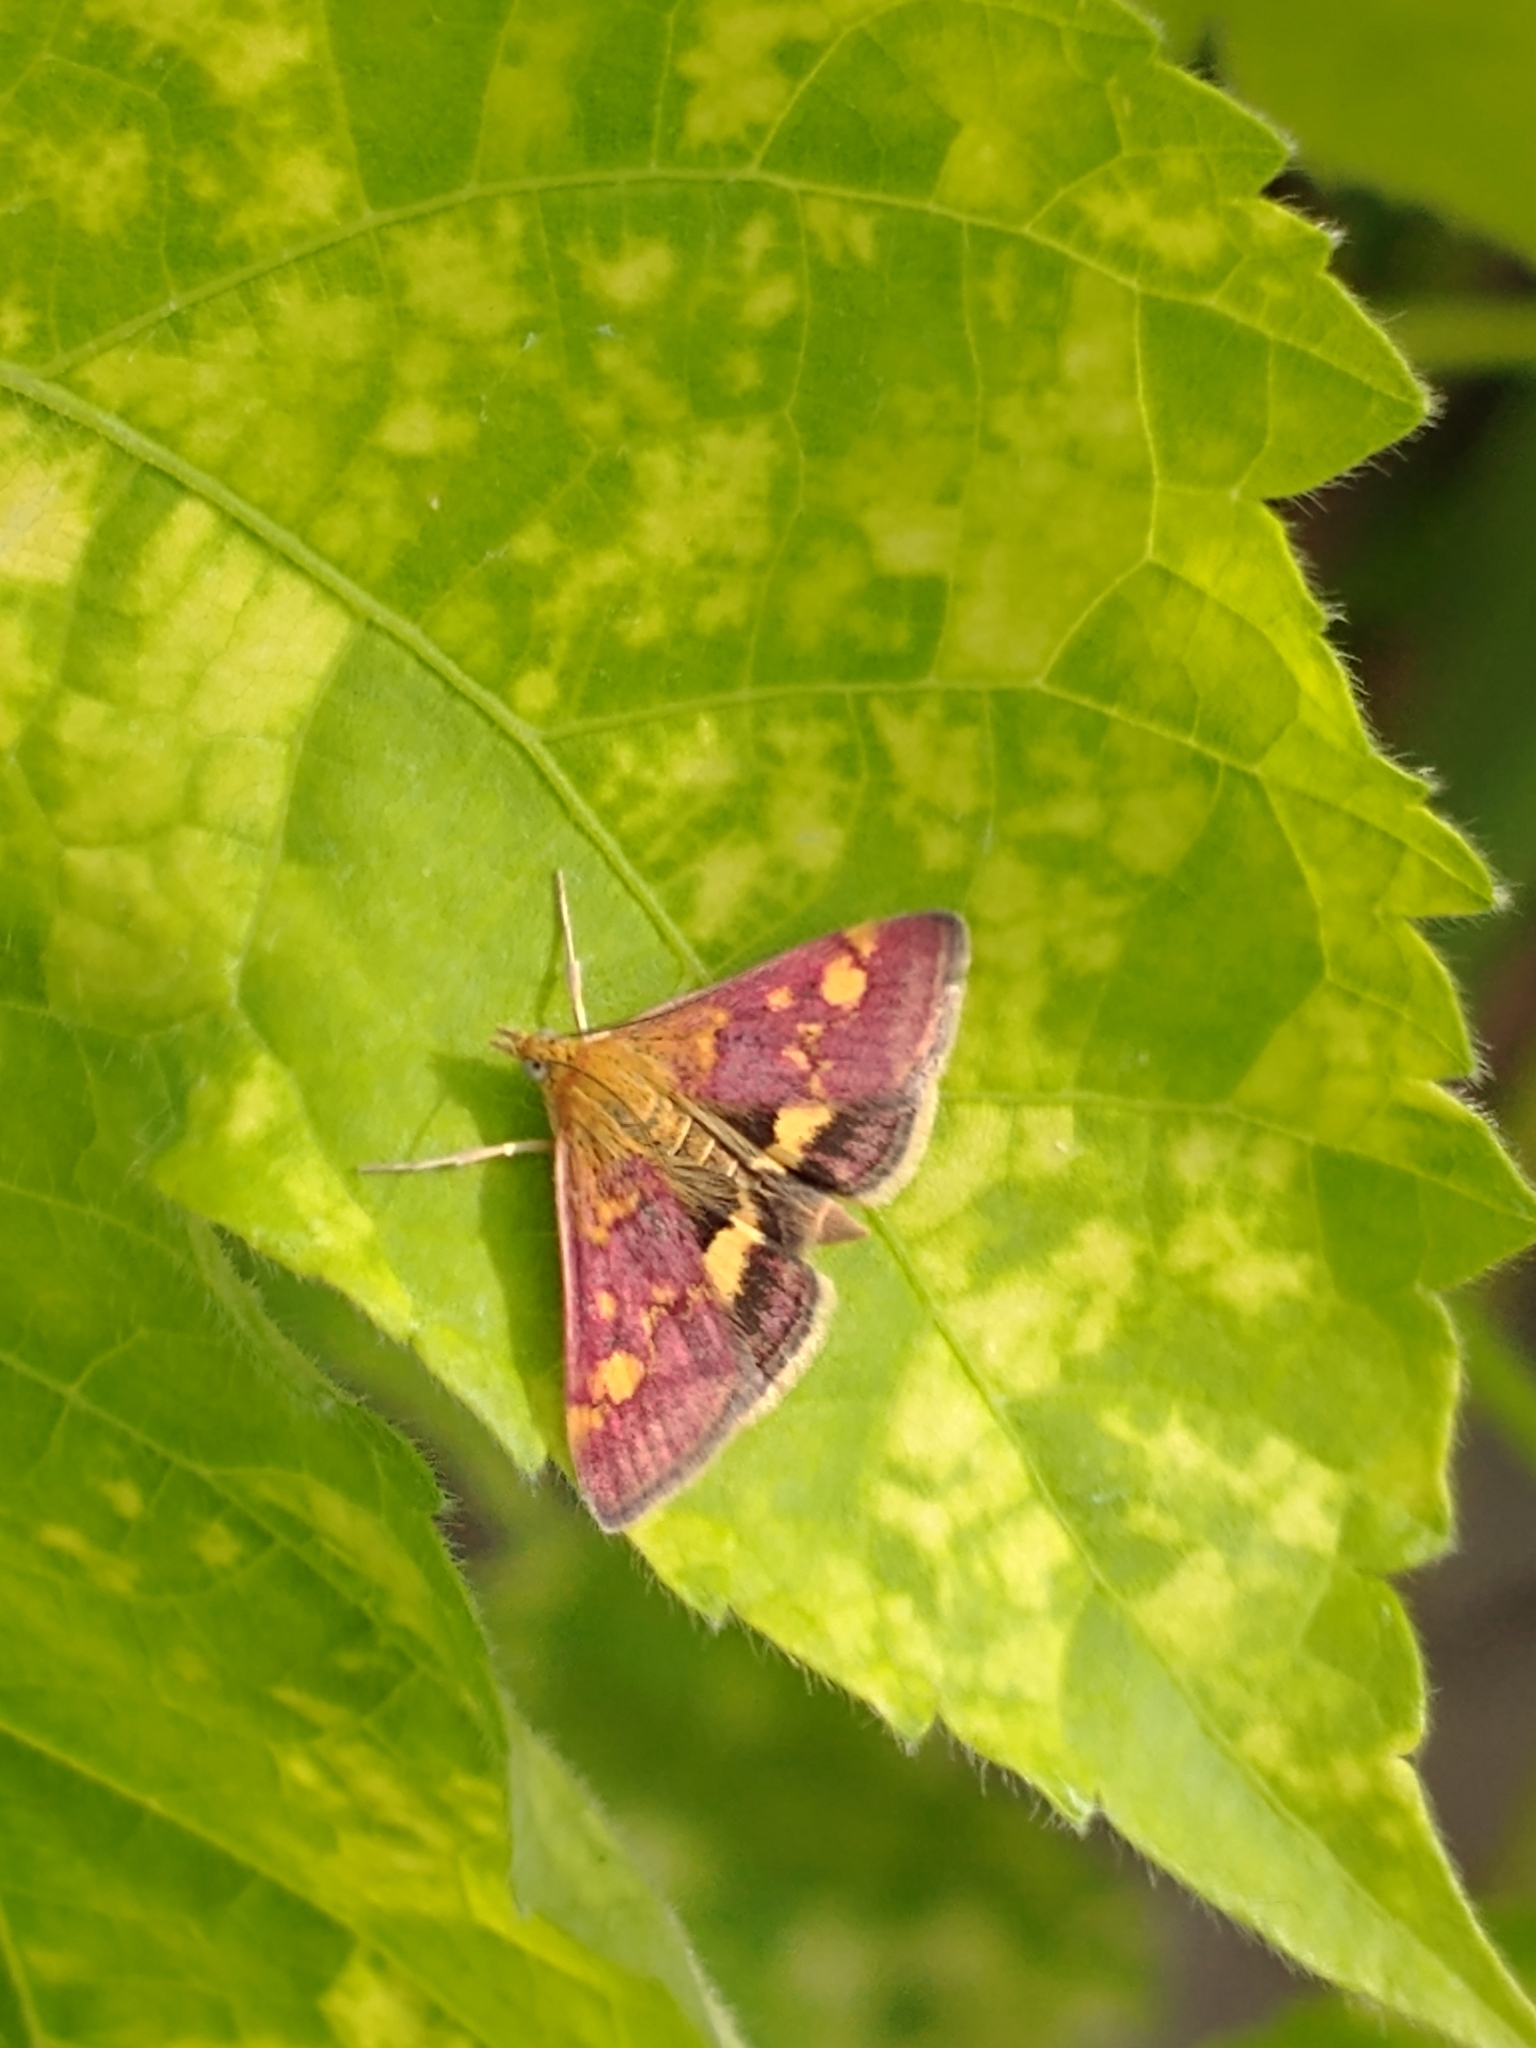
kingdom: Animalia
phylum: Arthropoda
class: Insecta
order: Lepidoptera
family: Crambidae
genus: Pyrausta
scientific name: Pyrausta aurata
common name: Small purple & gold
